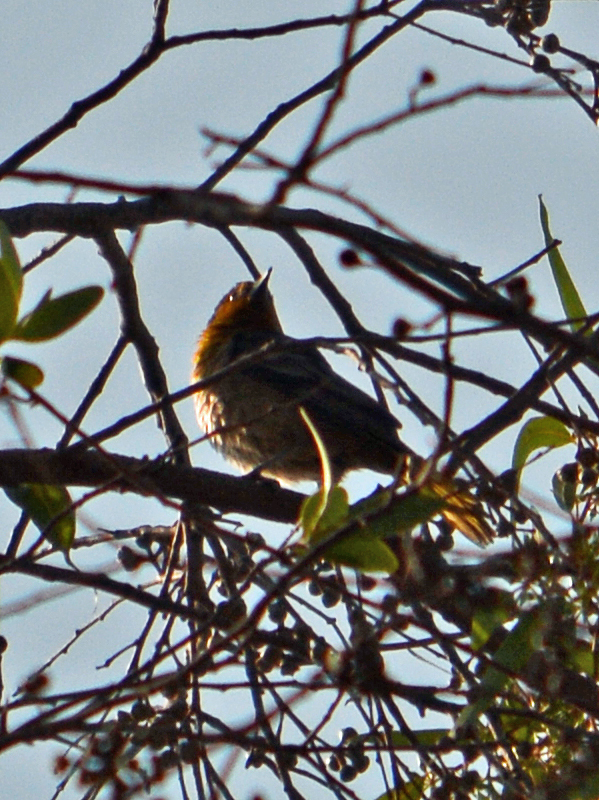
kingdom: Animalia
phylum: Chordata
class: Aves
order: Passeriformes
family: Icteridae
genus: Icterus
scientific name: Icterus abeillei
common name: Black-backed oriole
